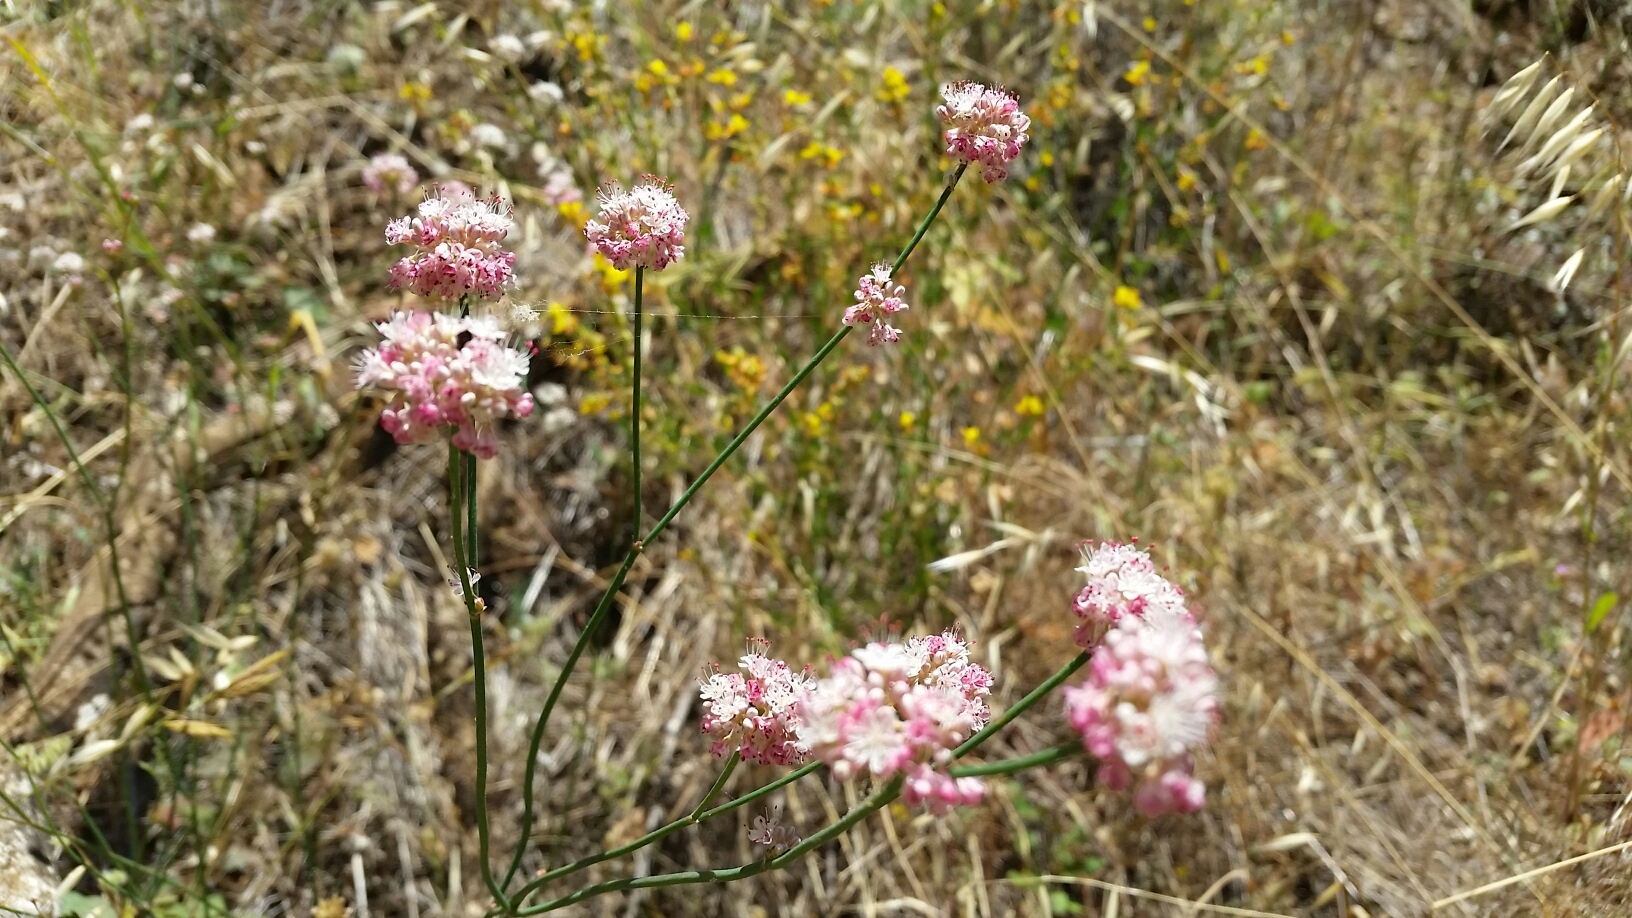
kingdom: Plantae
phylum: Tracheophyta
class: Magnoliopsida
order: Caryophyllales
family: Polygonaceae
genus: Eriogonum
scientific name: Eriogonum nudum
